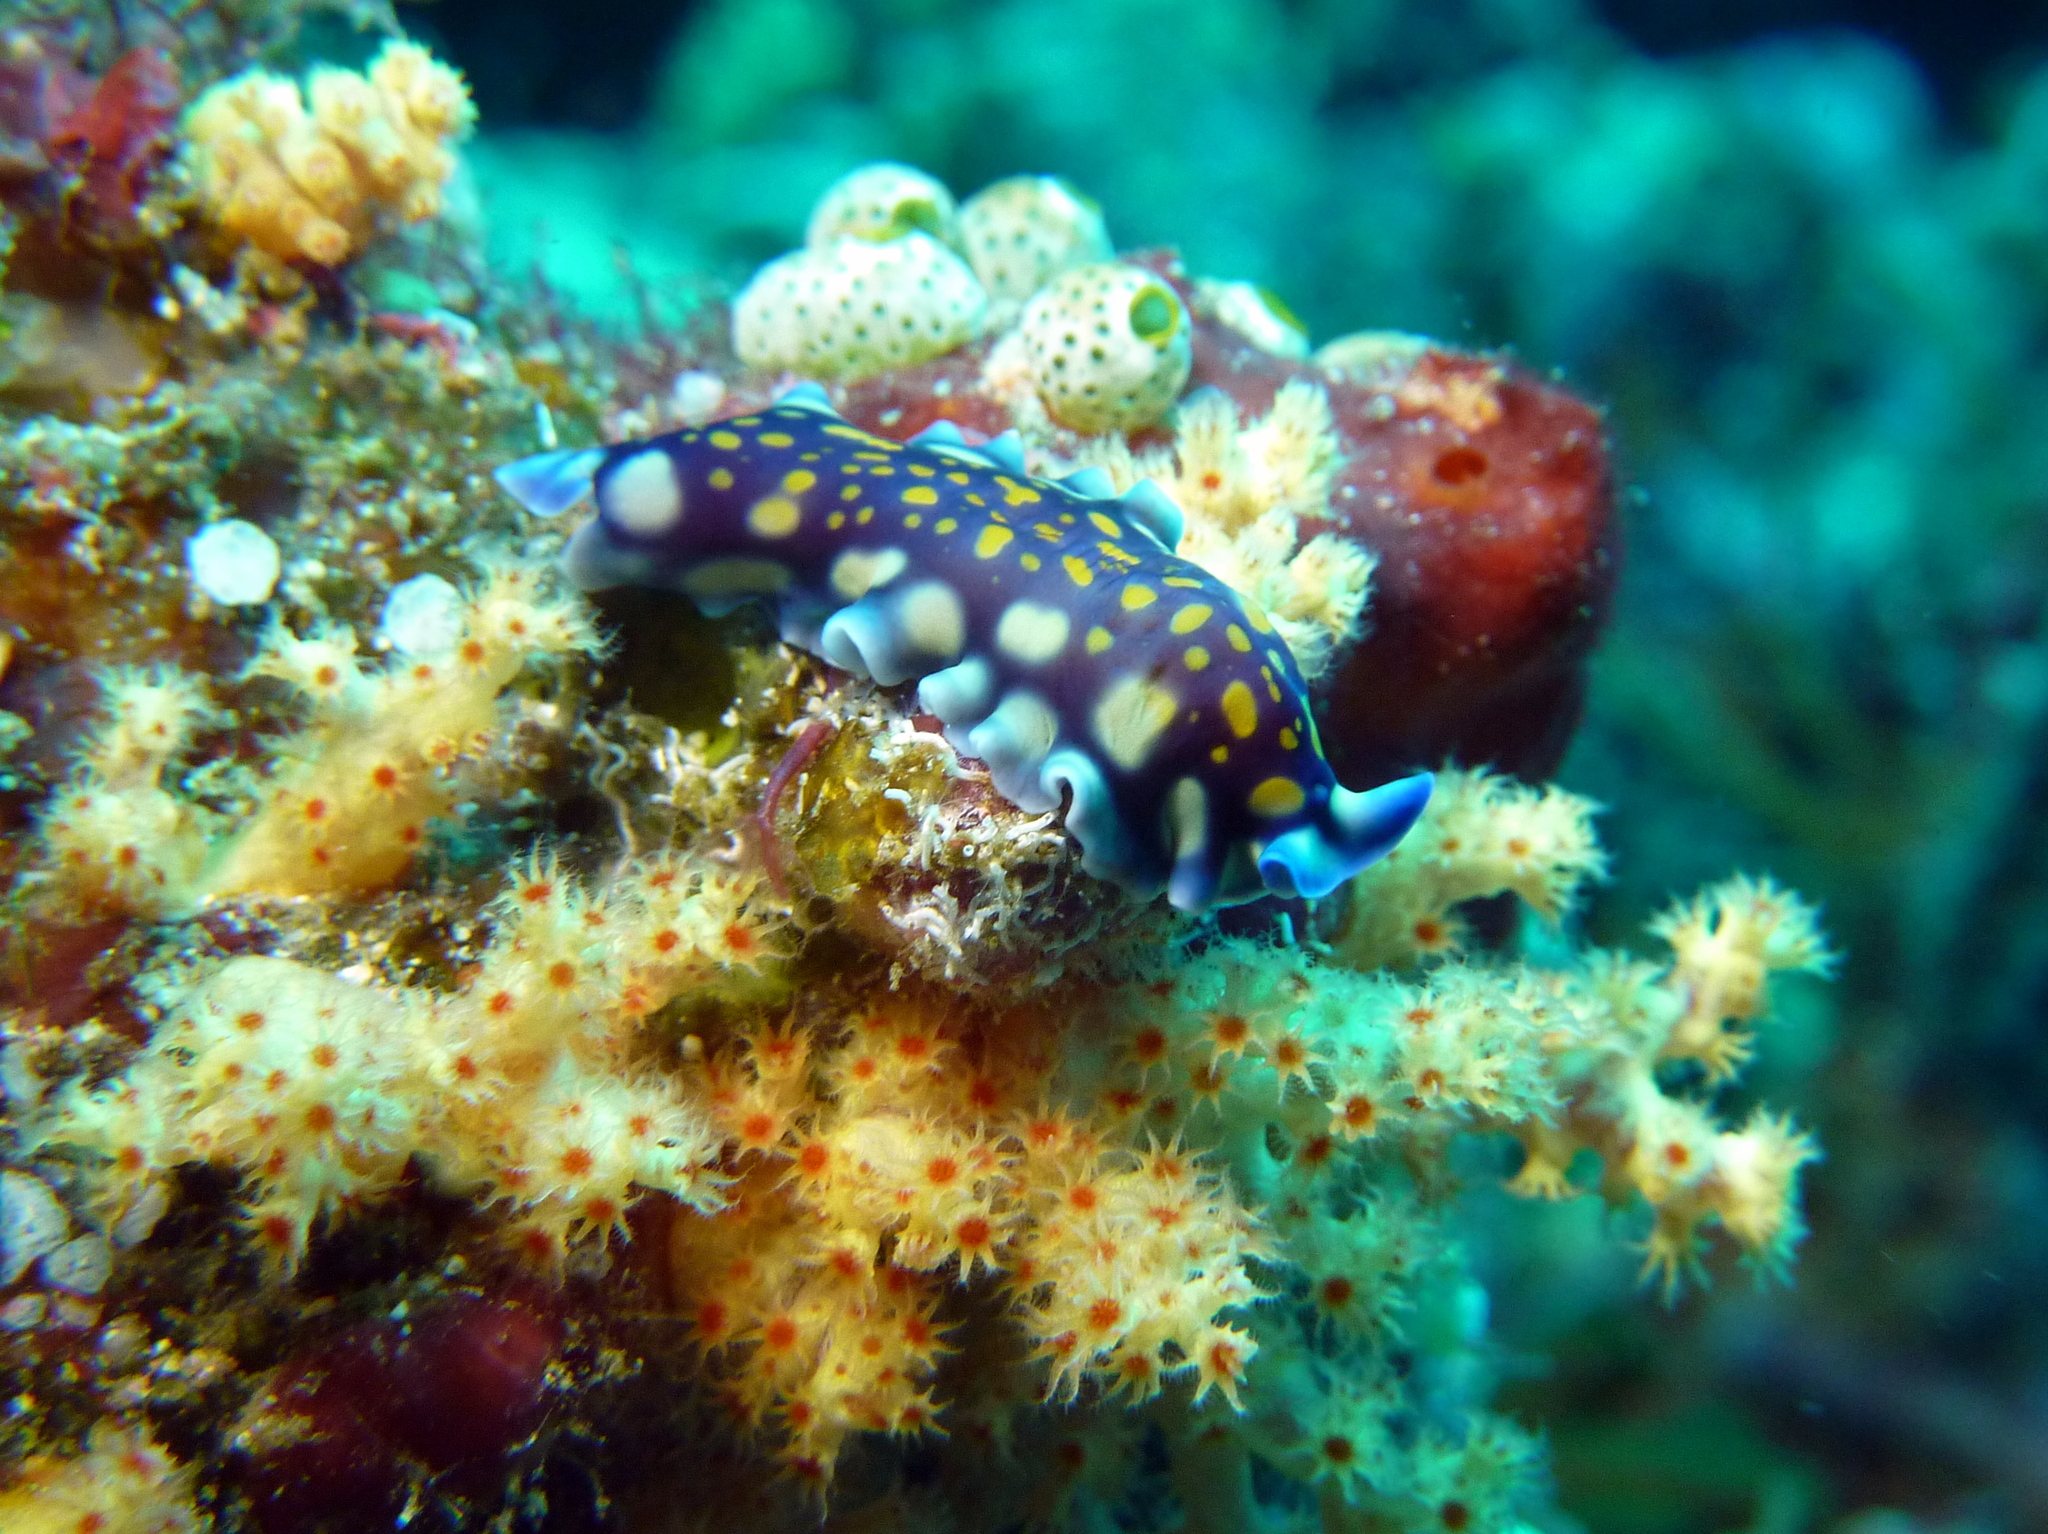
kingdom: Animalia
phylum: Platyhelminthes
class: Turbellaria
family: Pseudocerotidae
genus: Pseudoceros
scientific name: Pseudoceros lindae
